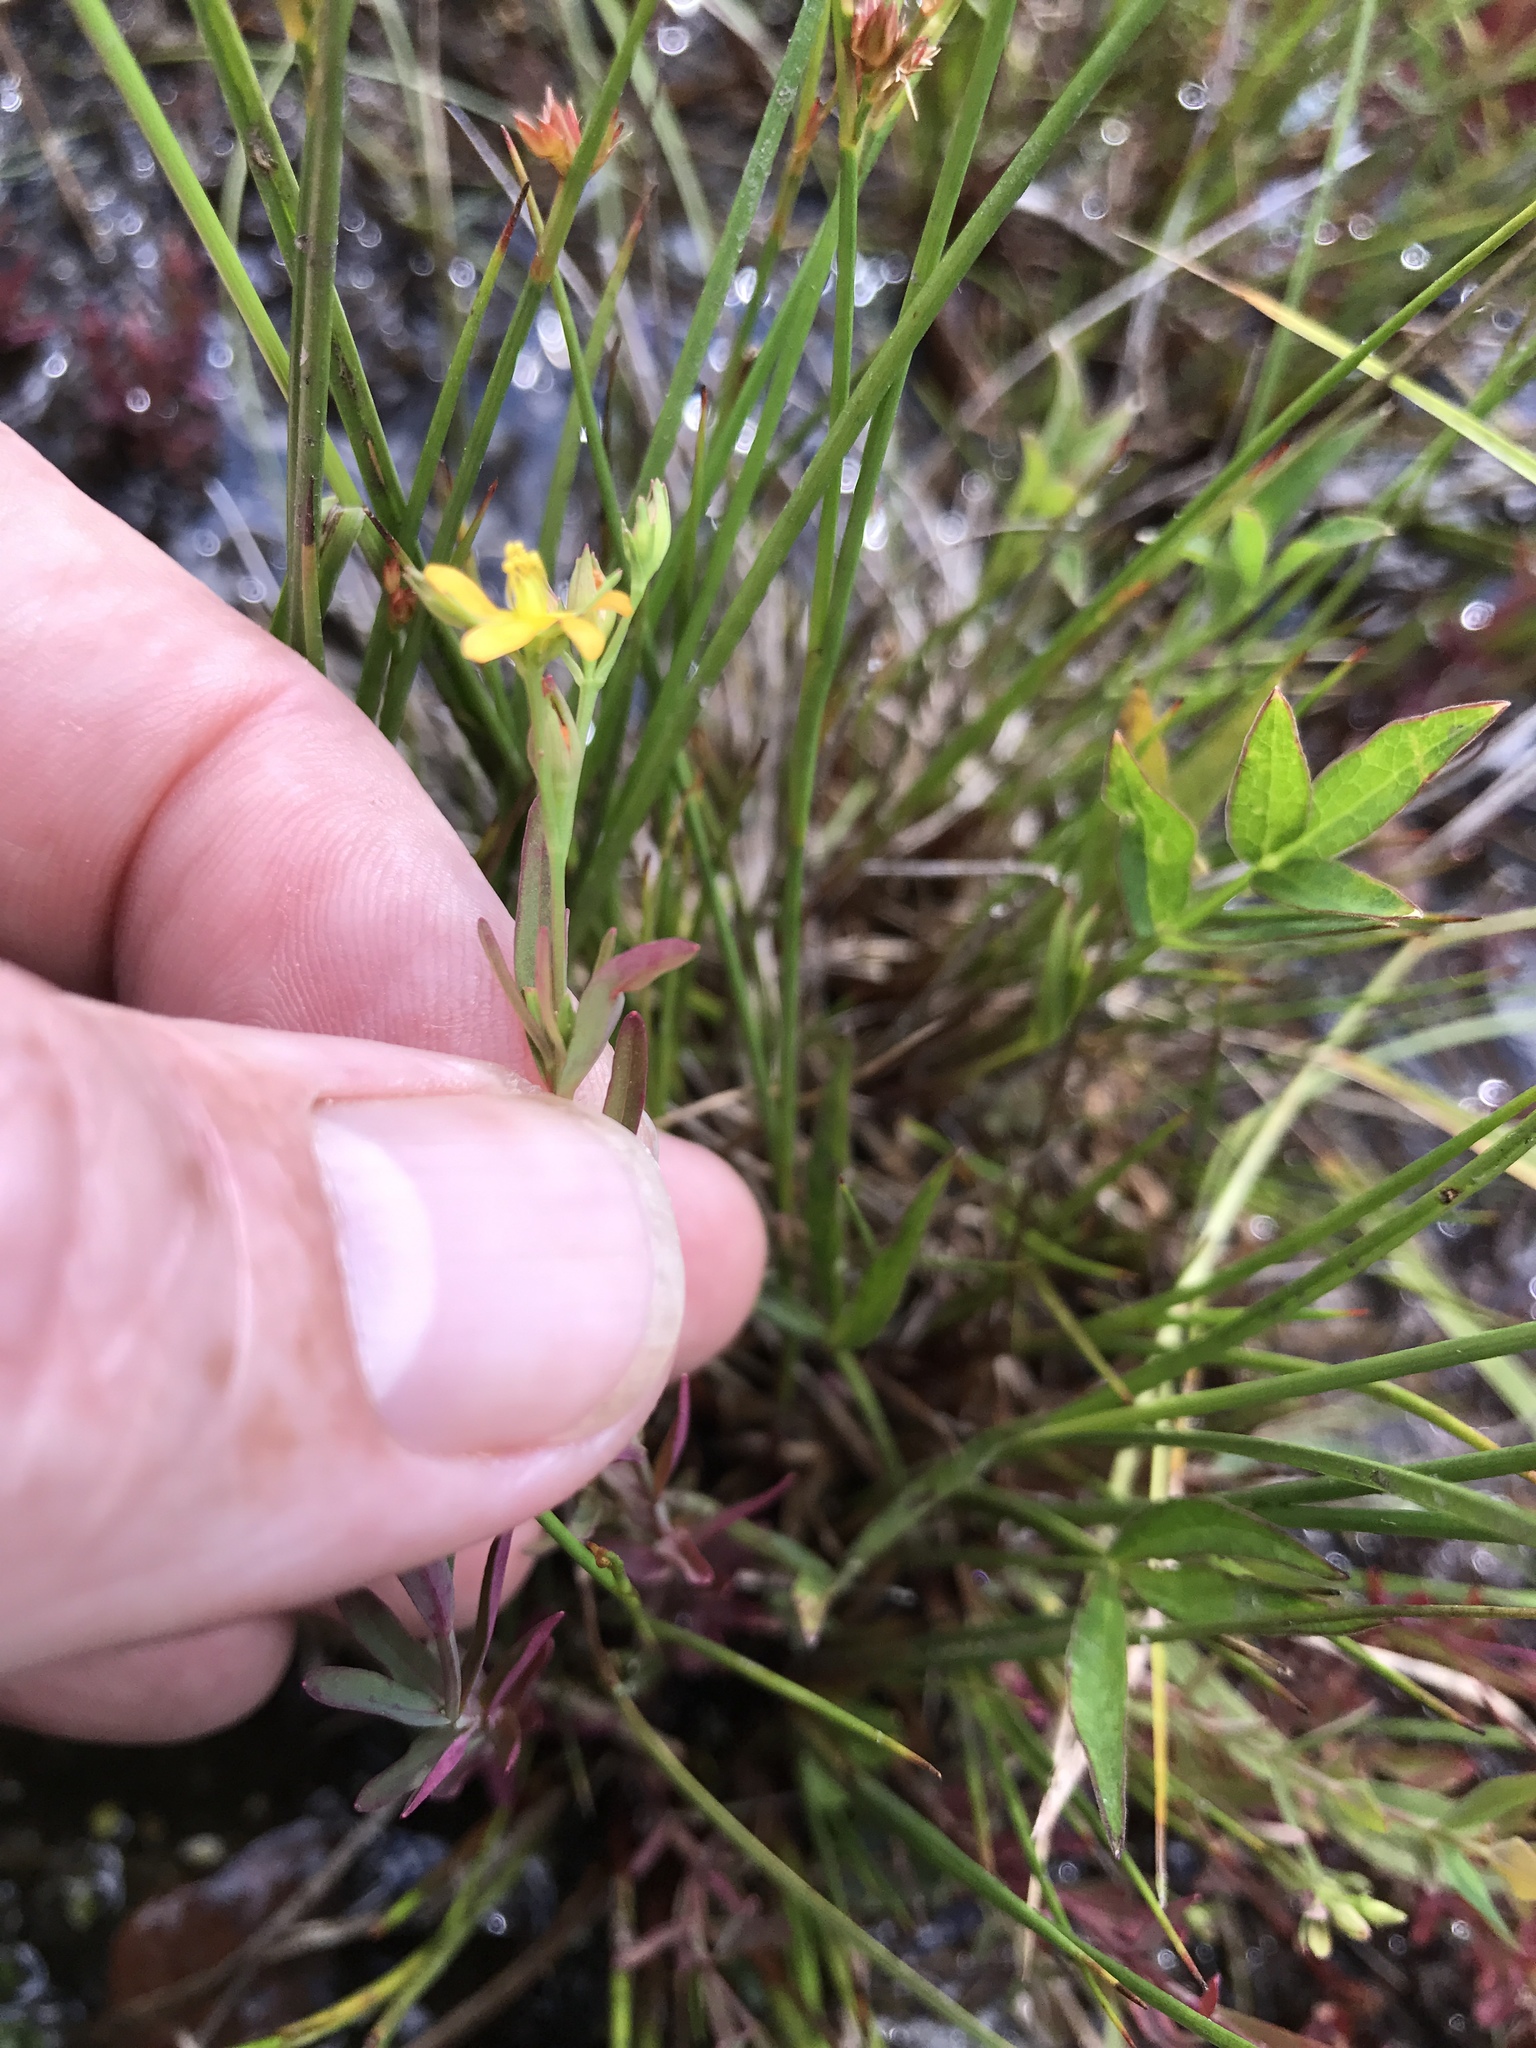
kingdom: Plantae
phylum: Tracheophyta
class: Magnoliopsida
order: Malpighiales
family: Hypericaceae
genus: Hypericum
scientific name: Hypericum canadense
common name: Irish st. john's-wort
